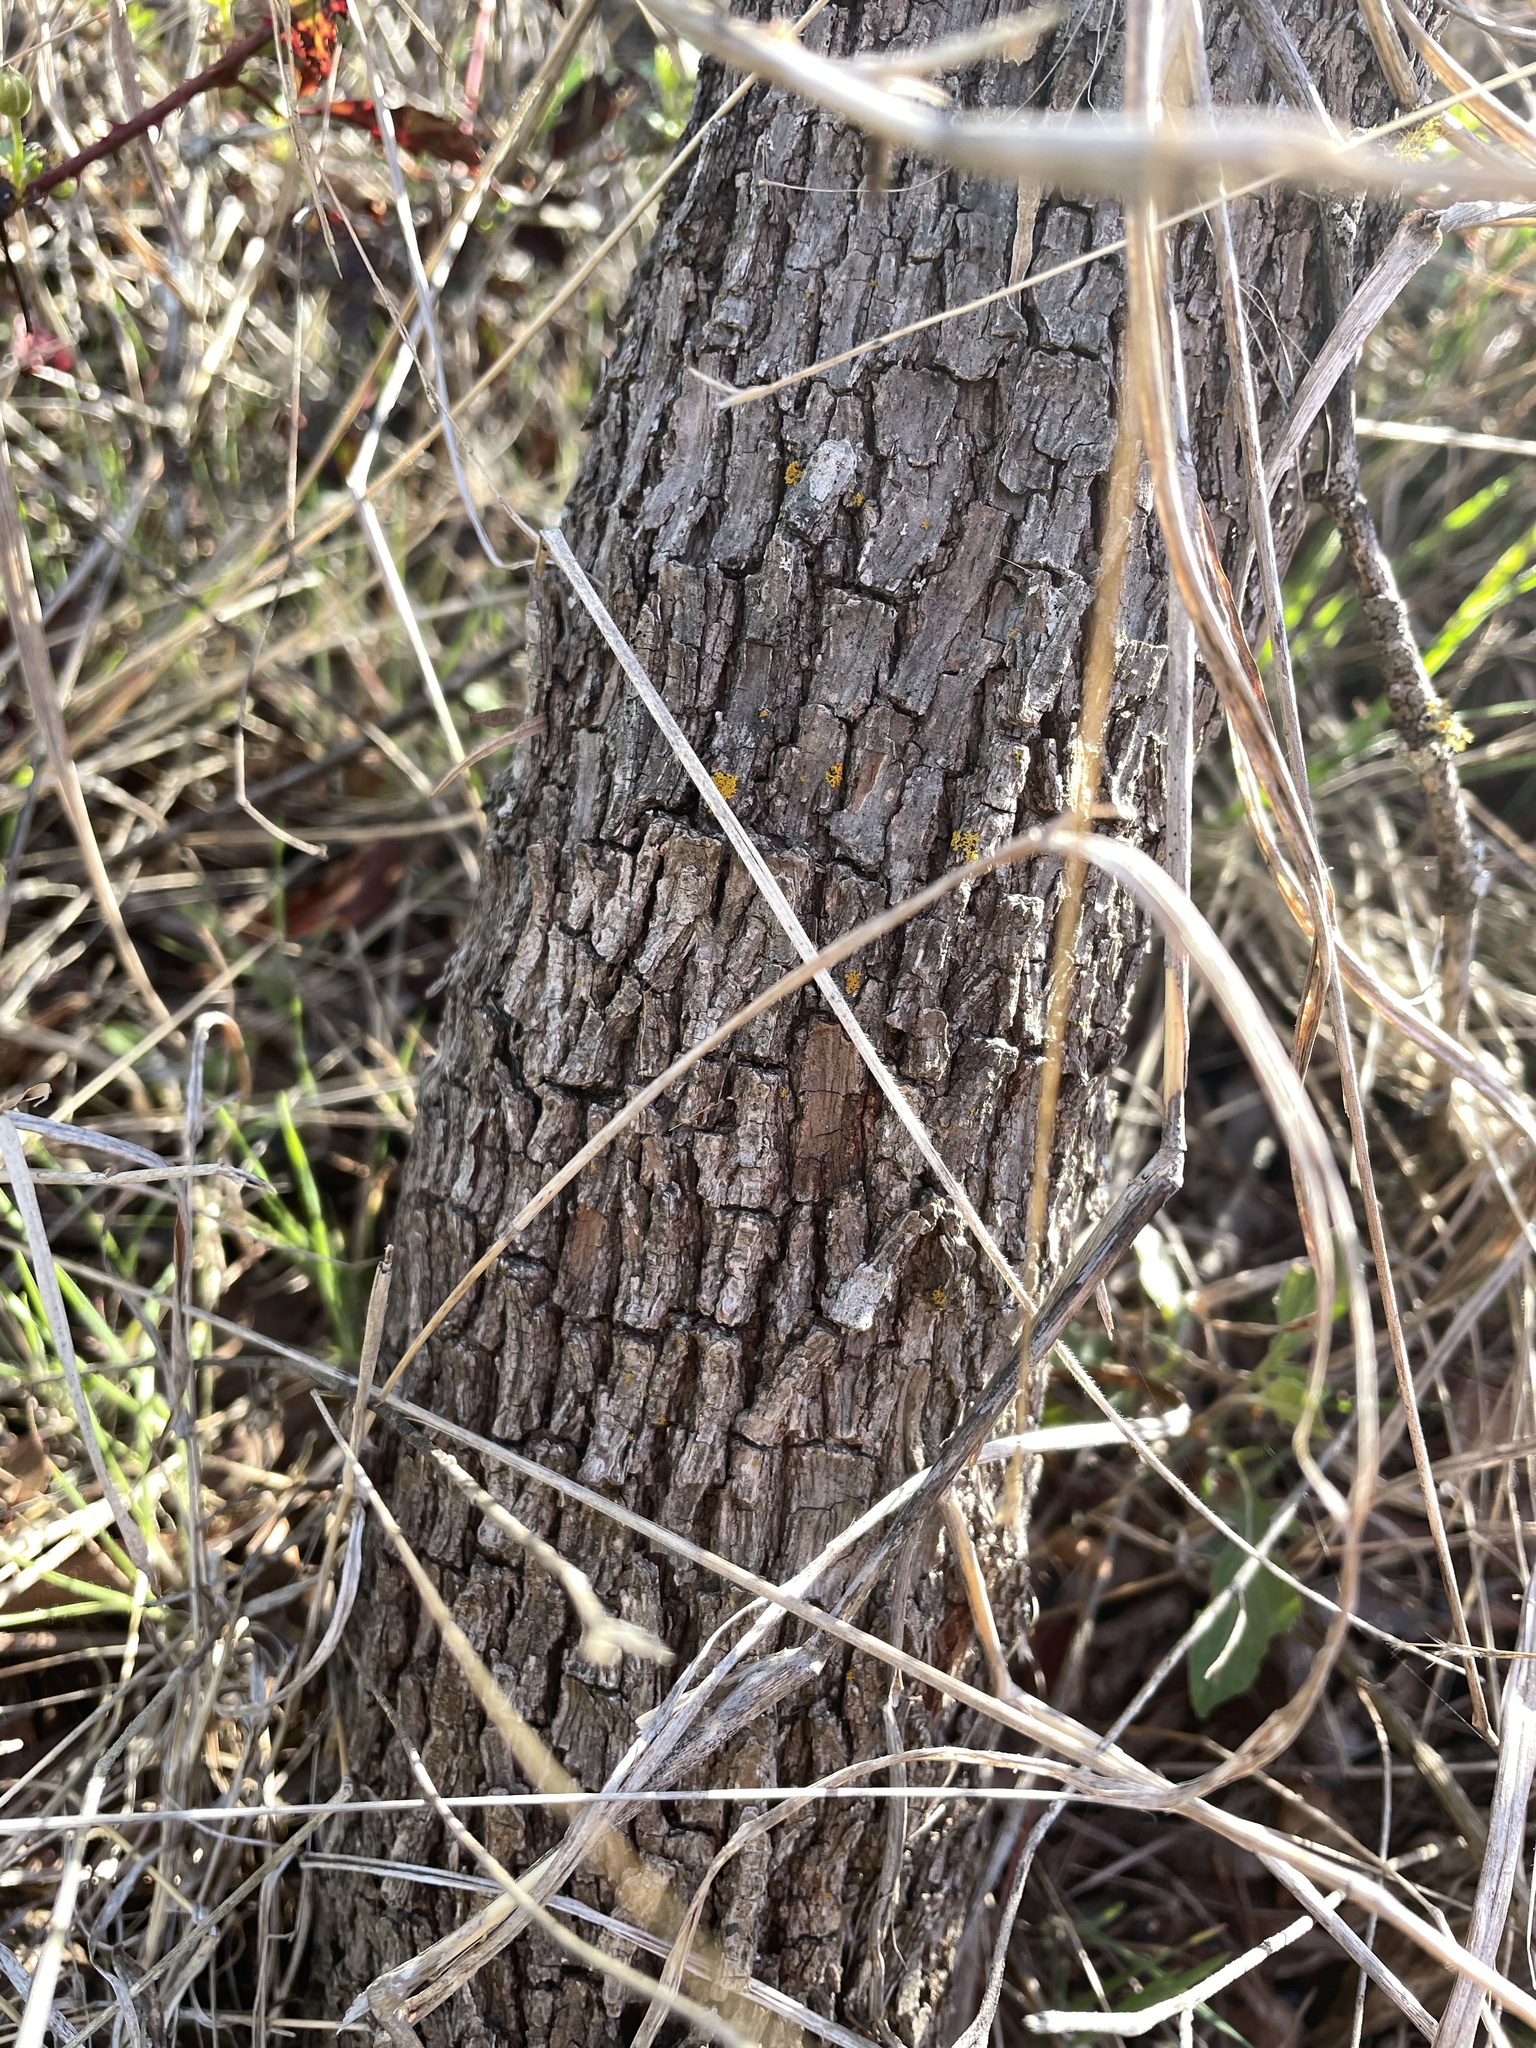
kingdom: Plantae
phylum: Tracheophyta
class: Magnoliopsida
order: Ericales
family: Sapotaceae
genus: Sideroxylon
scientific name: Sideroxylon lanuginosum
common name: Chittamwood
